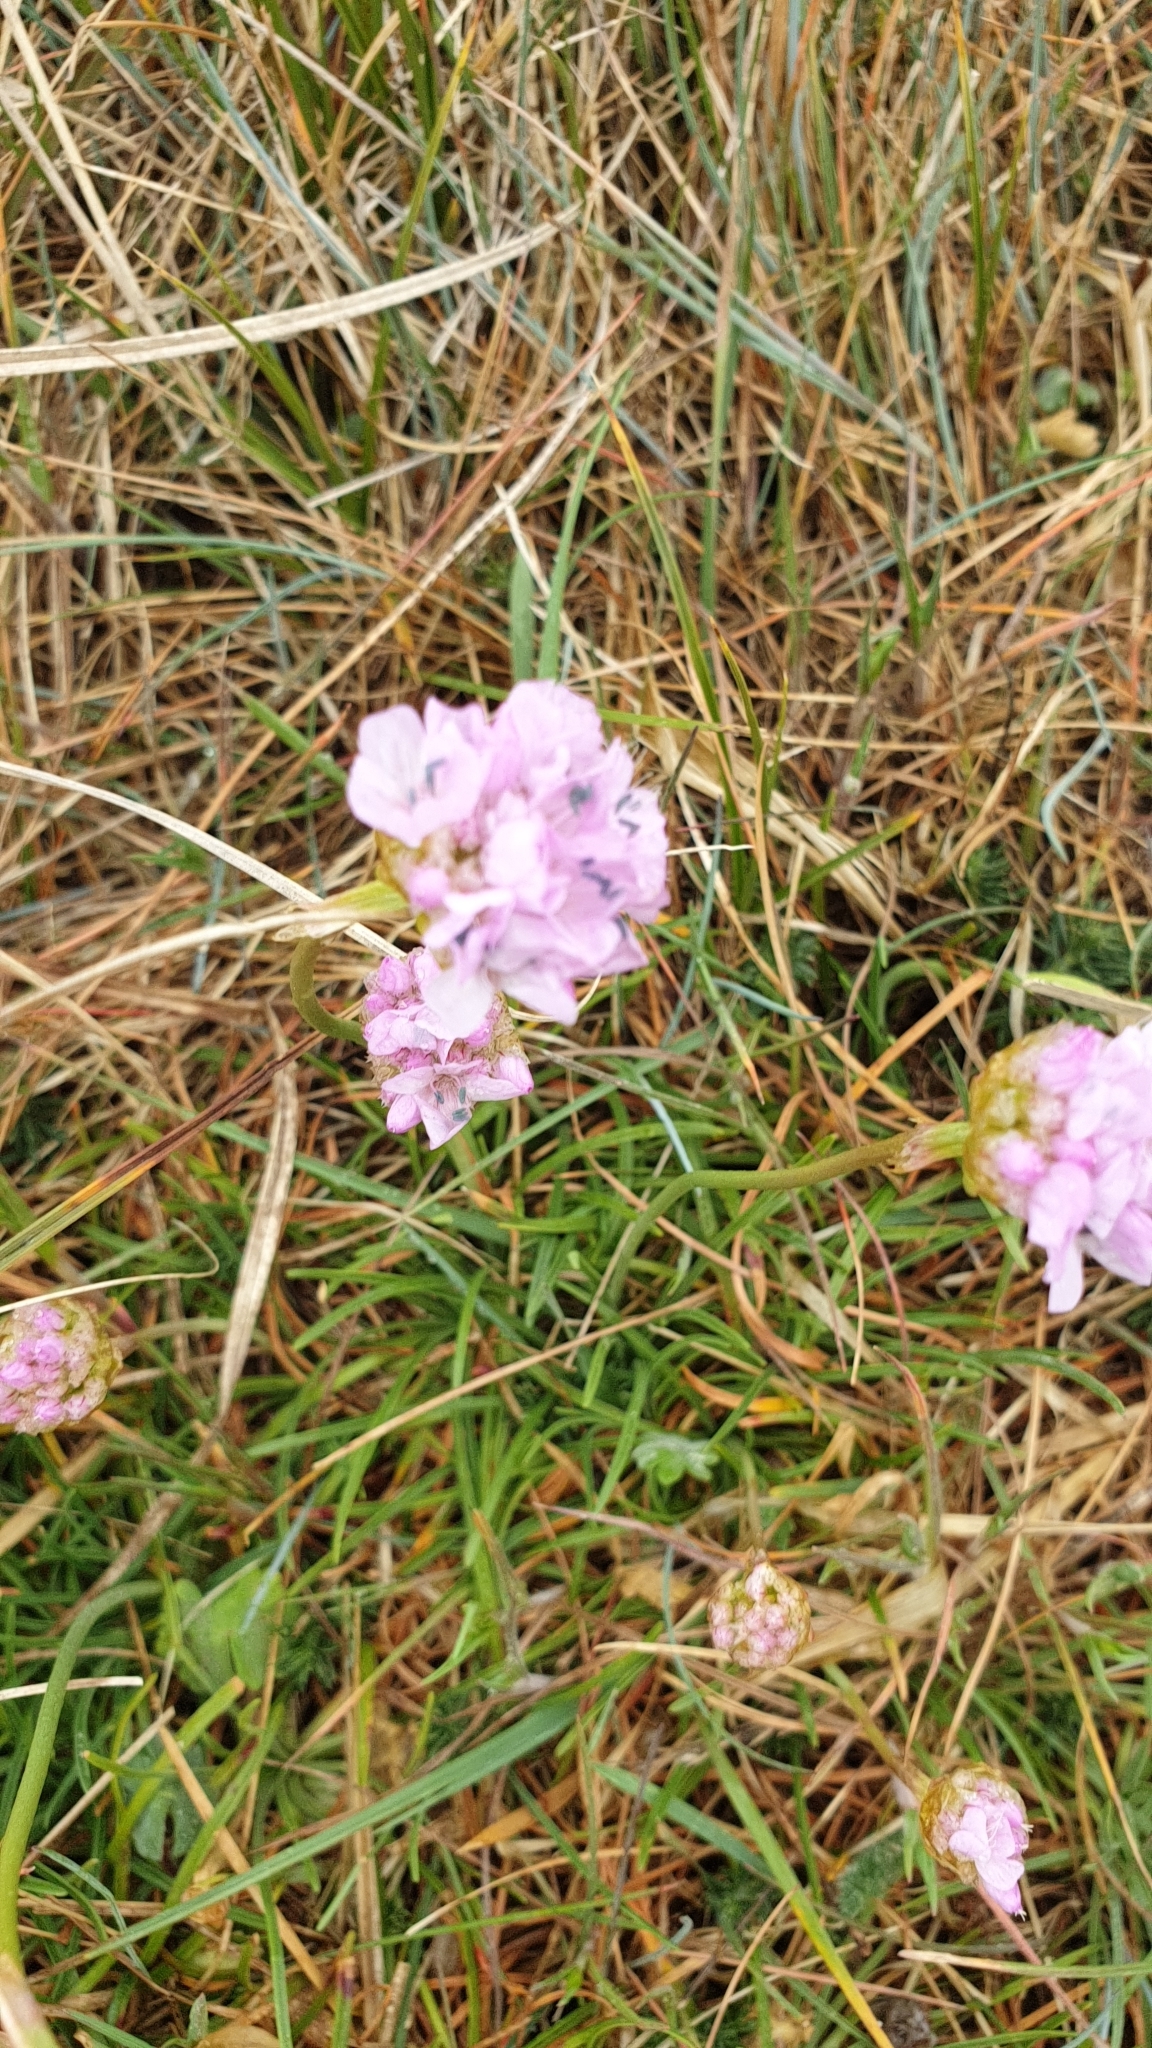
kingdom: Plantae
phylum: Tracheophyta
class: Magnoliopsida
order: Caryophyllales
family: Plumbaginaceae
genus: Armeria
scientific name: Armeria maritima
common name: Thrift
